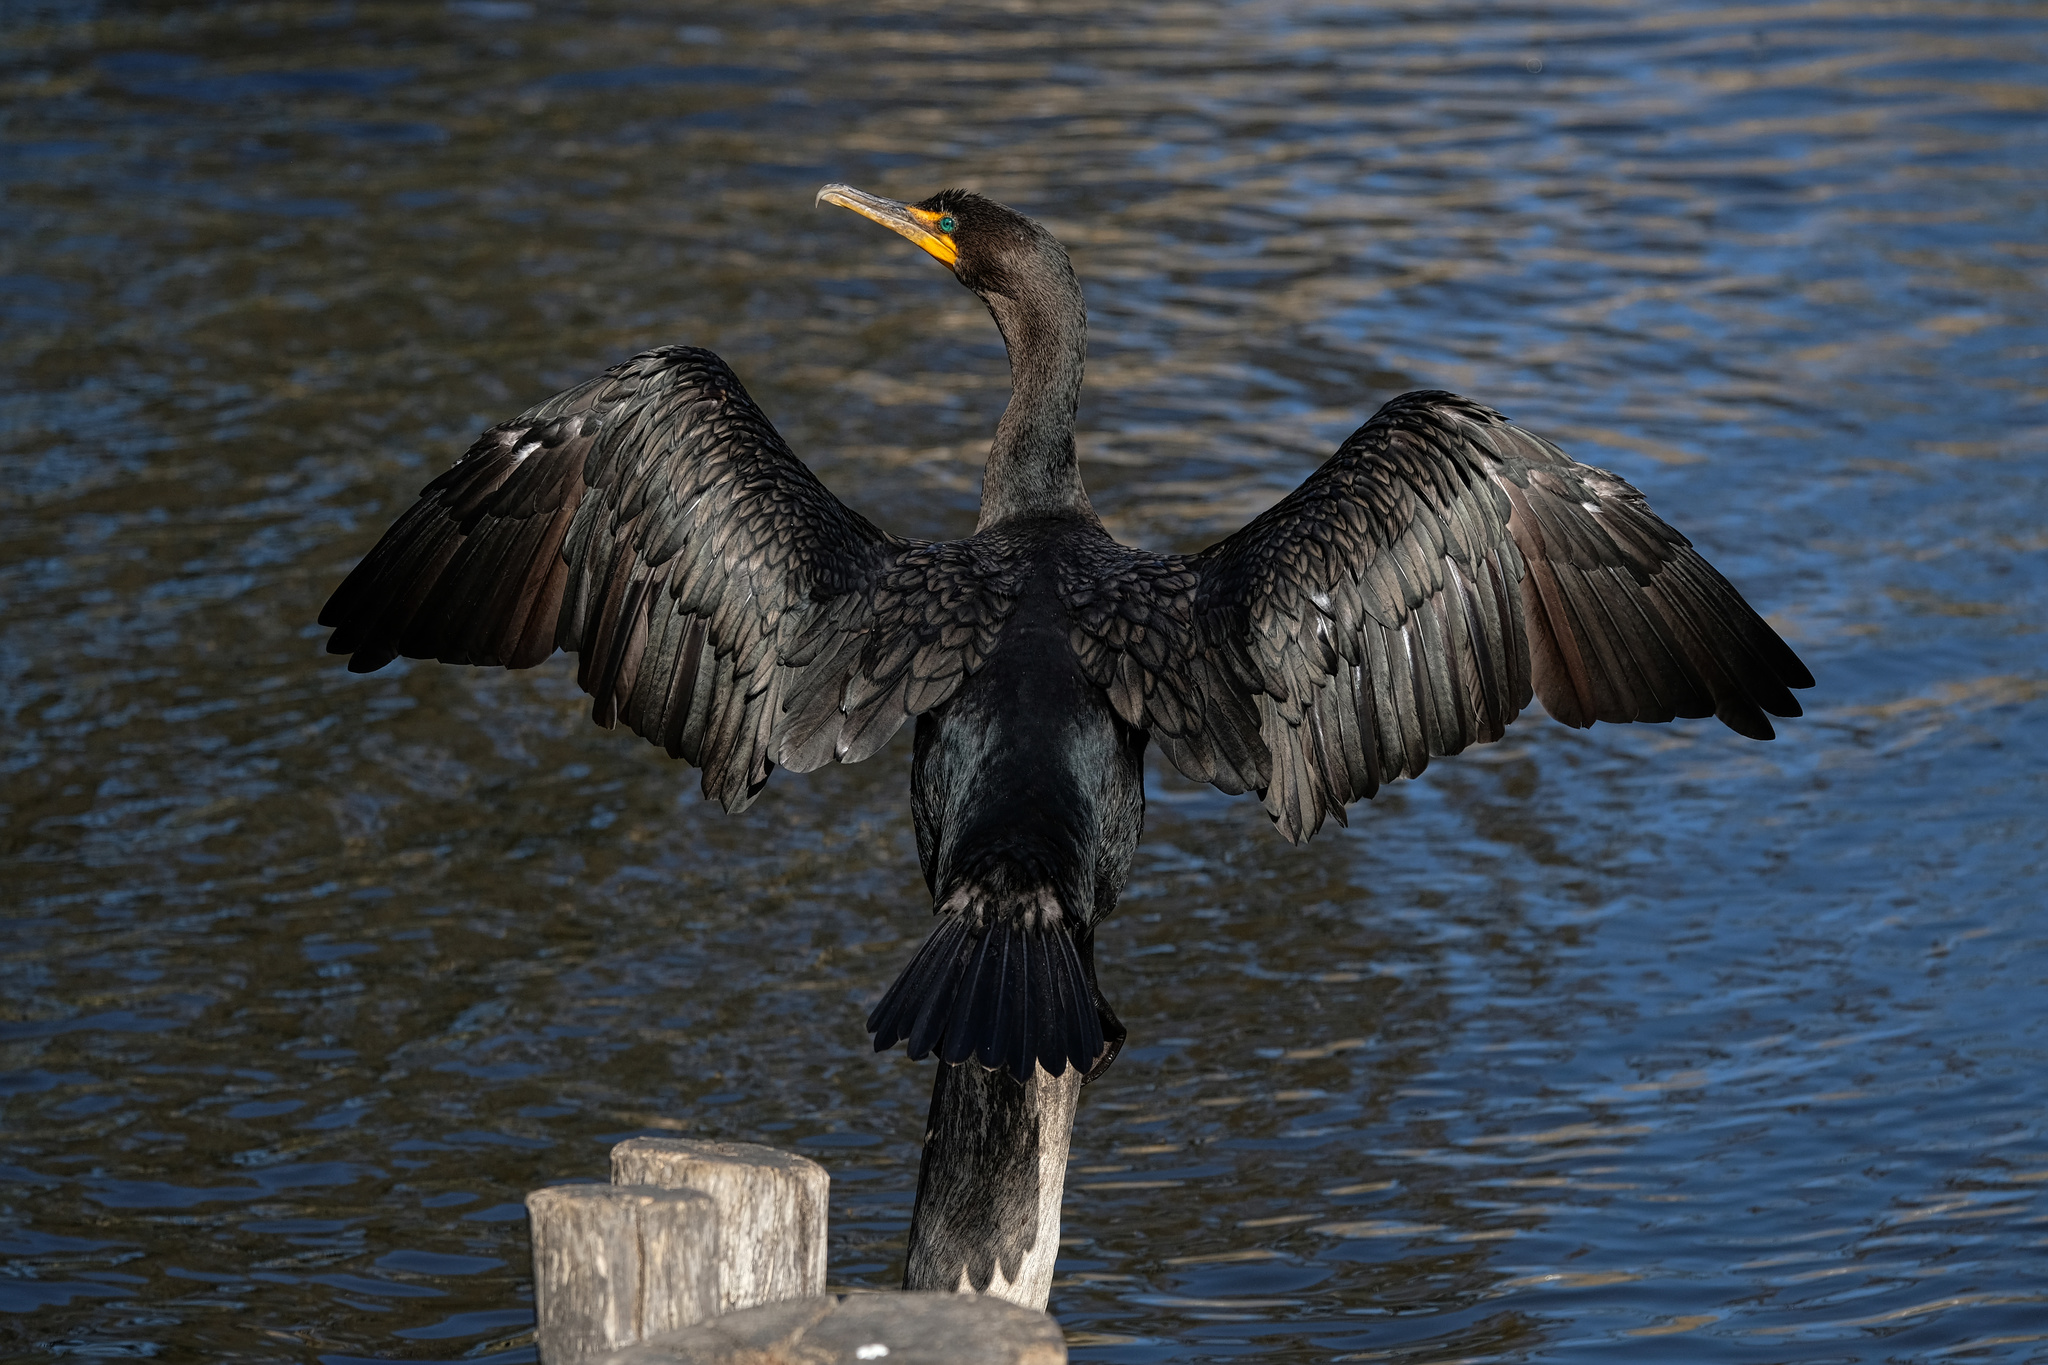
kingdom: Animalia
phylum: Chordata
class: Aves
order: Suliformes
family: Phalacrocoracidae
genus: Phalacrocorax
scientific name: Phalacrocorax auritus
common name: Double-crested cormorant
